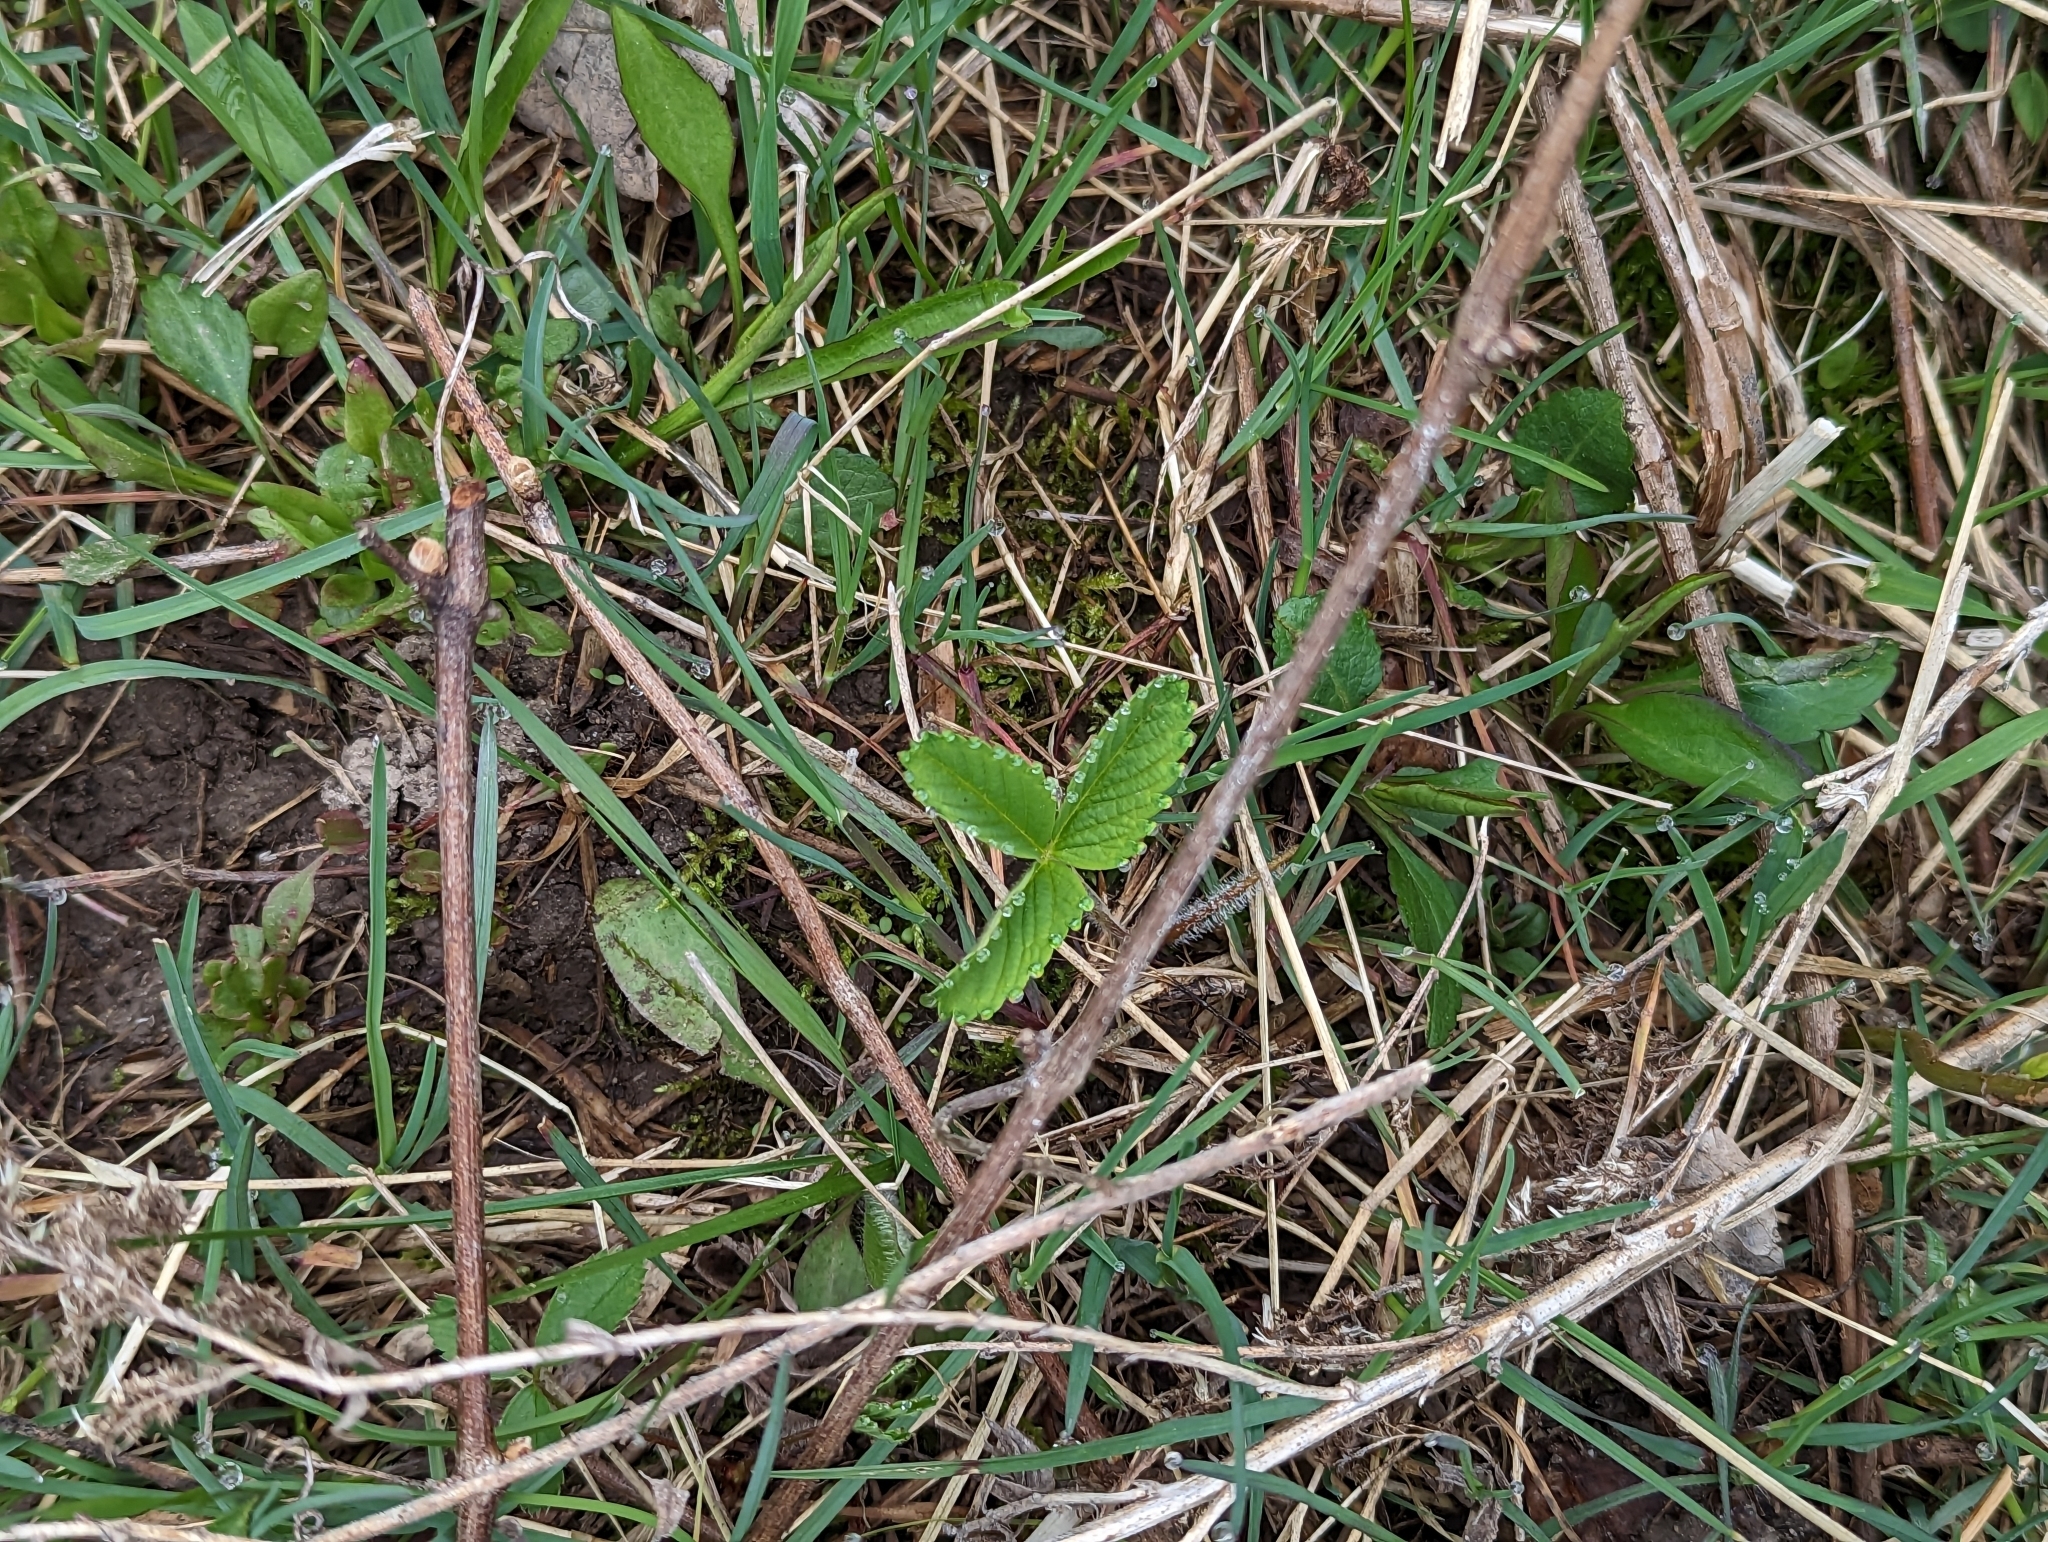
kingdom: Plantae
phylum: Tracheophyta
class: Magnoliopsida
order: Rosales
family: Rosaceae
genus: Fragaria
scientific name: Fragaria virginiana
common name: Thickleaved wild strawberry
